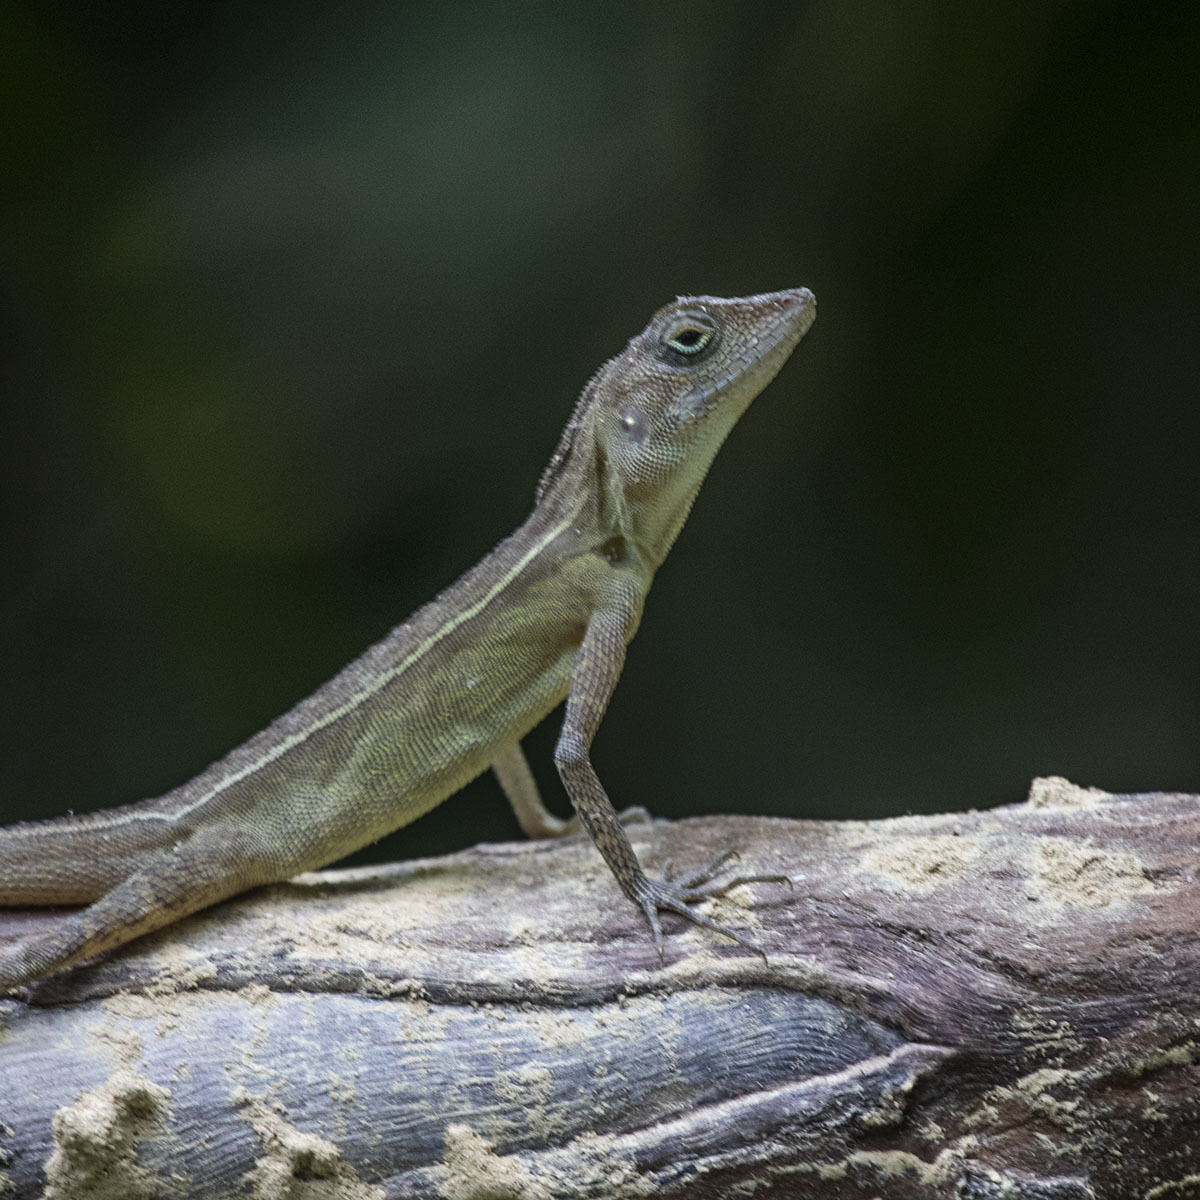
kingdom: Animalia
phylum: Chordata
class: Squamata
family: Agamidae
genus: Coryphophylax
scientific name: Coryphophylax subcristatus
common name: Short-crested bay island forest lizard
